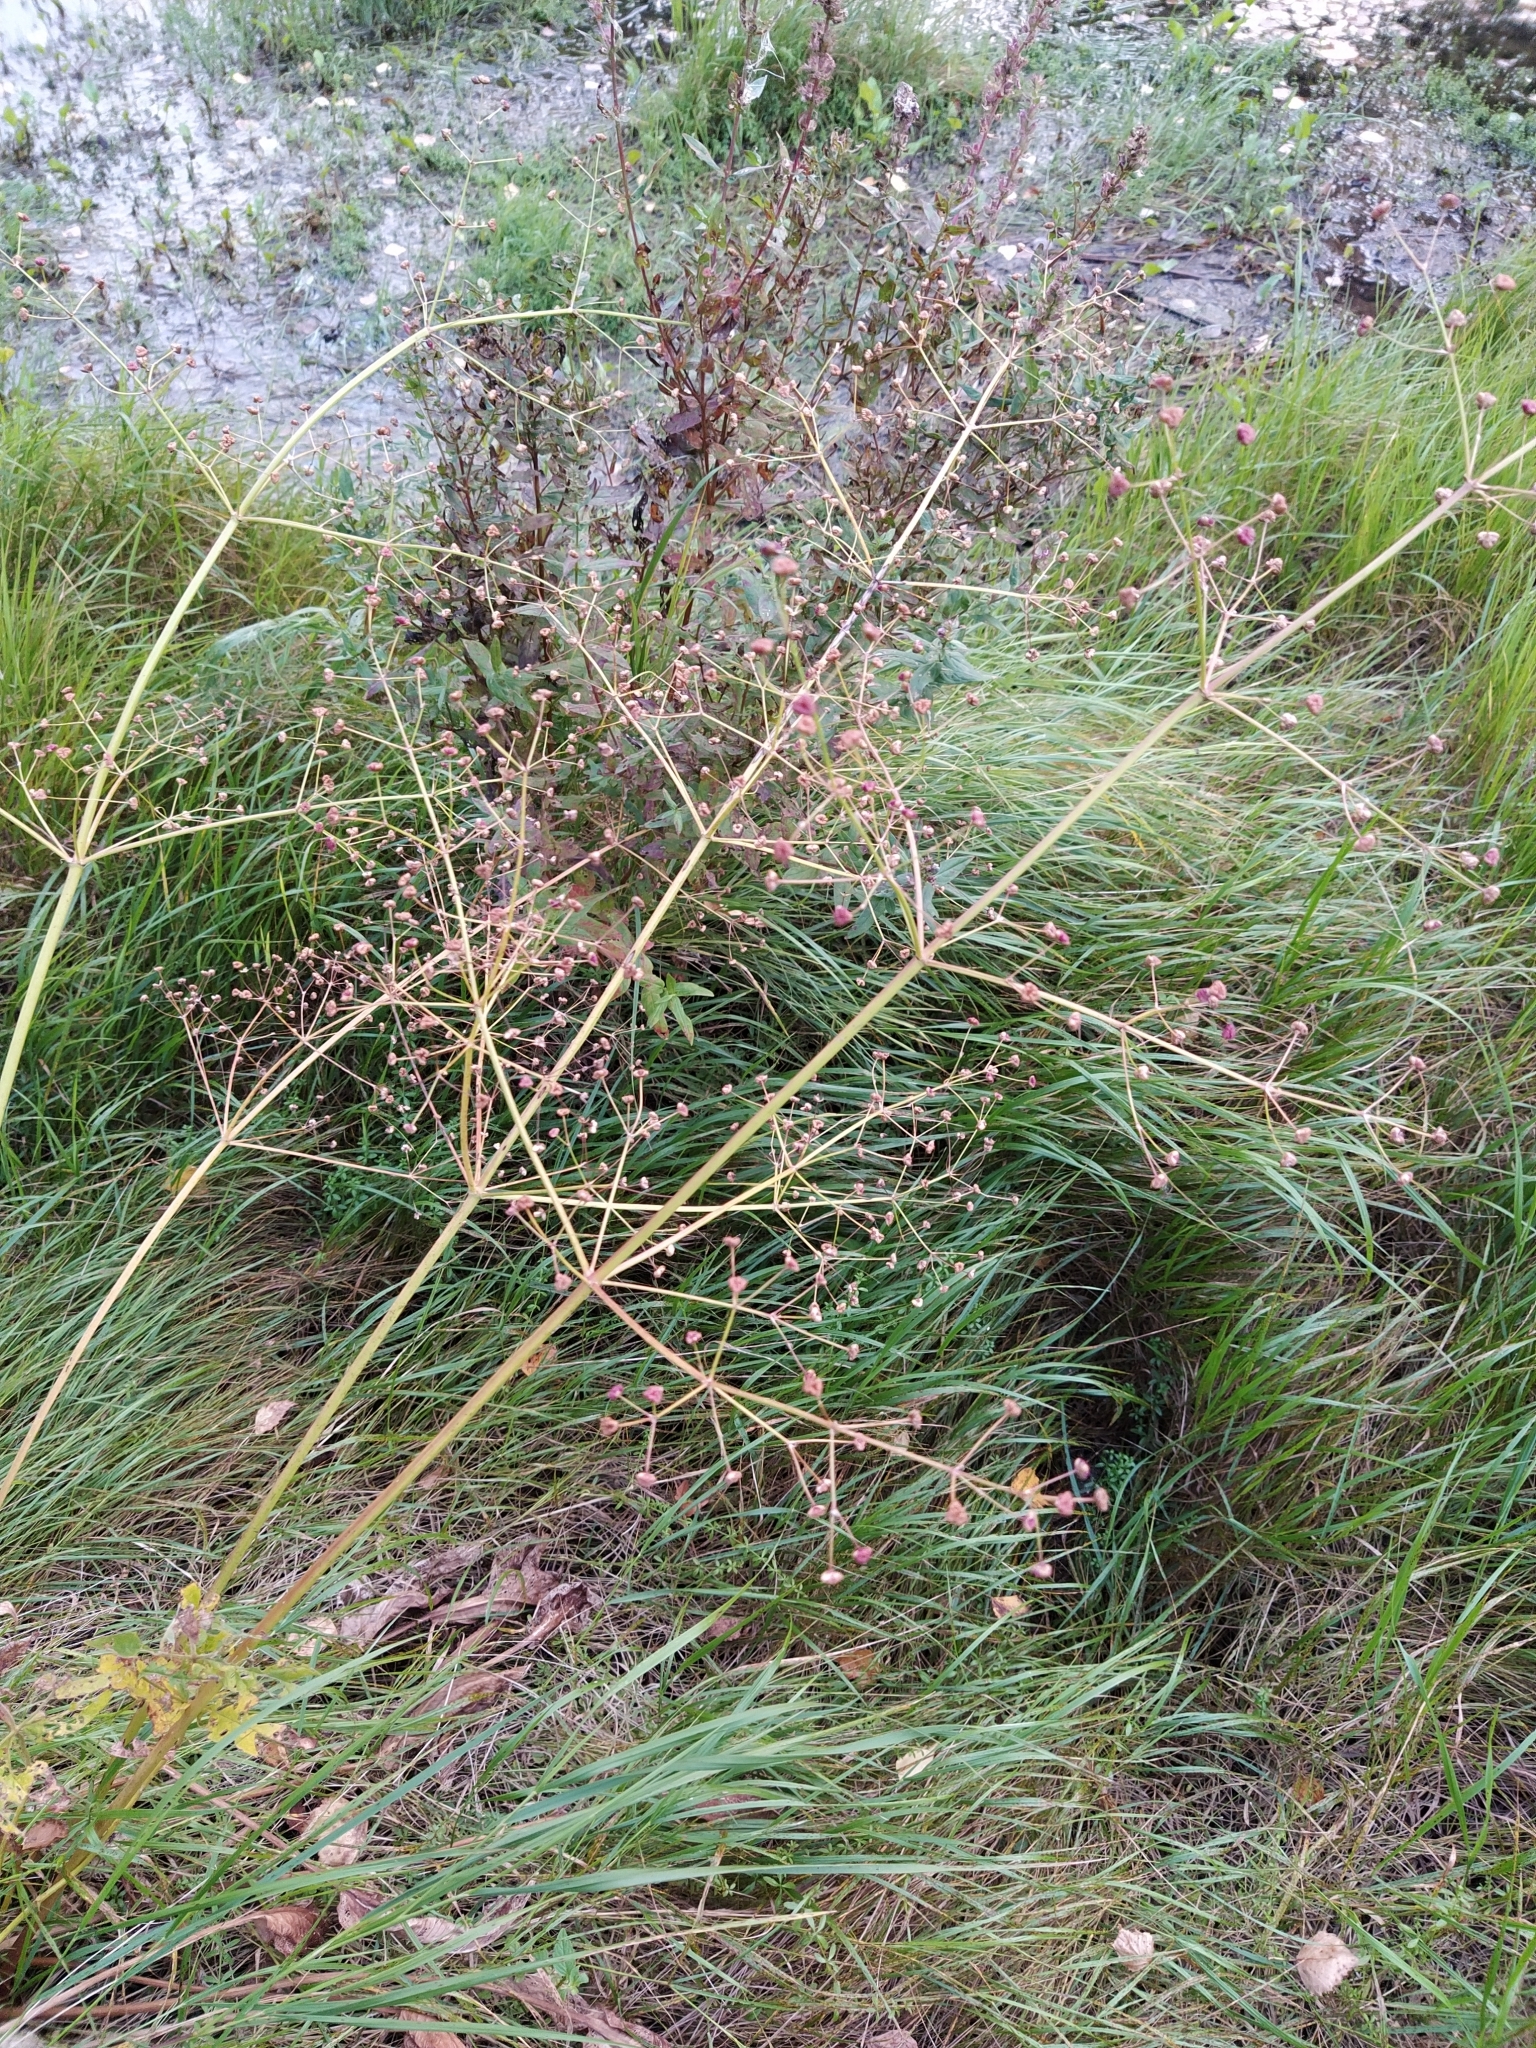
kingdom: Plantae
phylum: Tracheophyta
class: Liliopsida
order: Alismatales
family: Alismataceae
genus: Alisma
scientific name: Alisma plantago-aquatica
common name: Water-plantain
